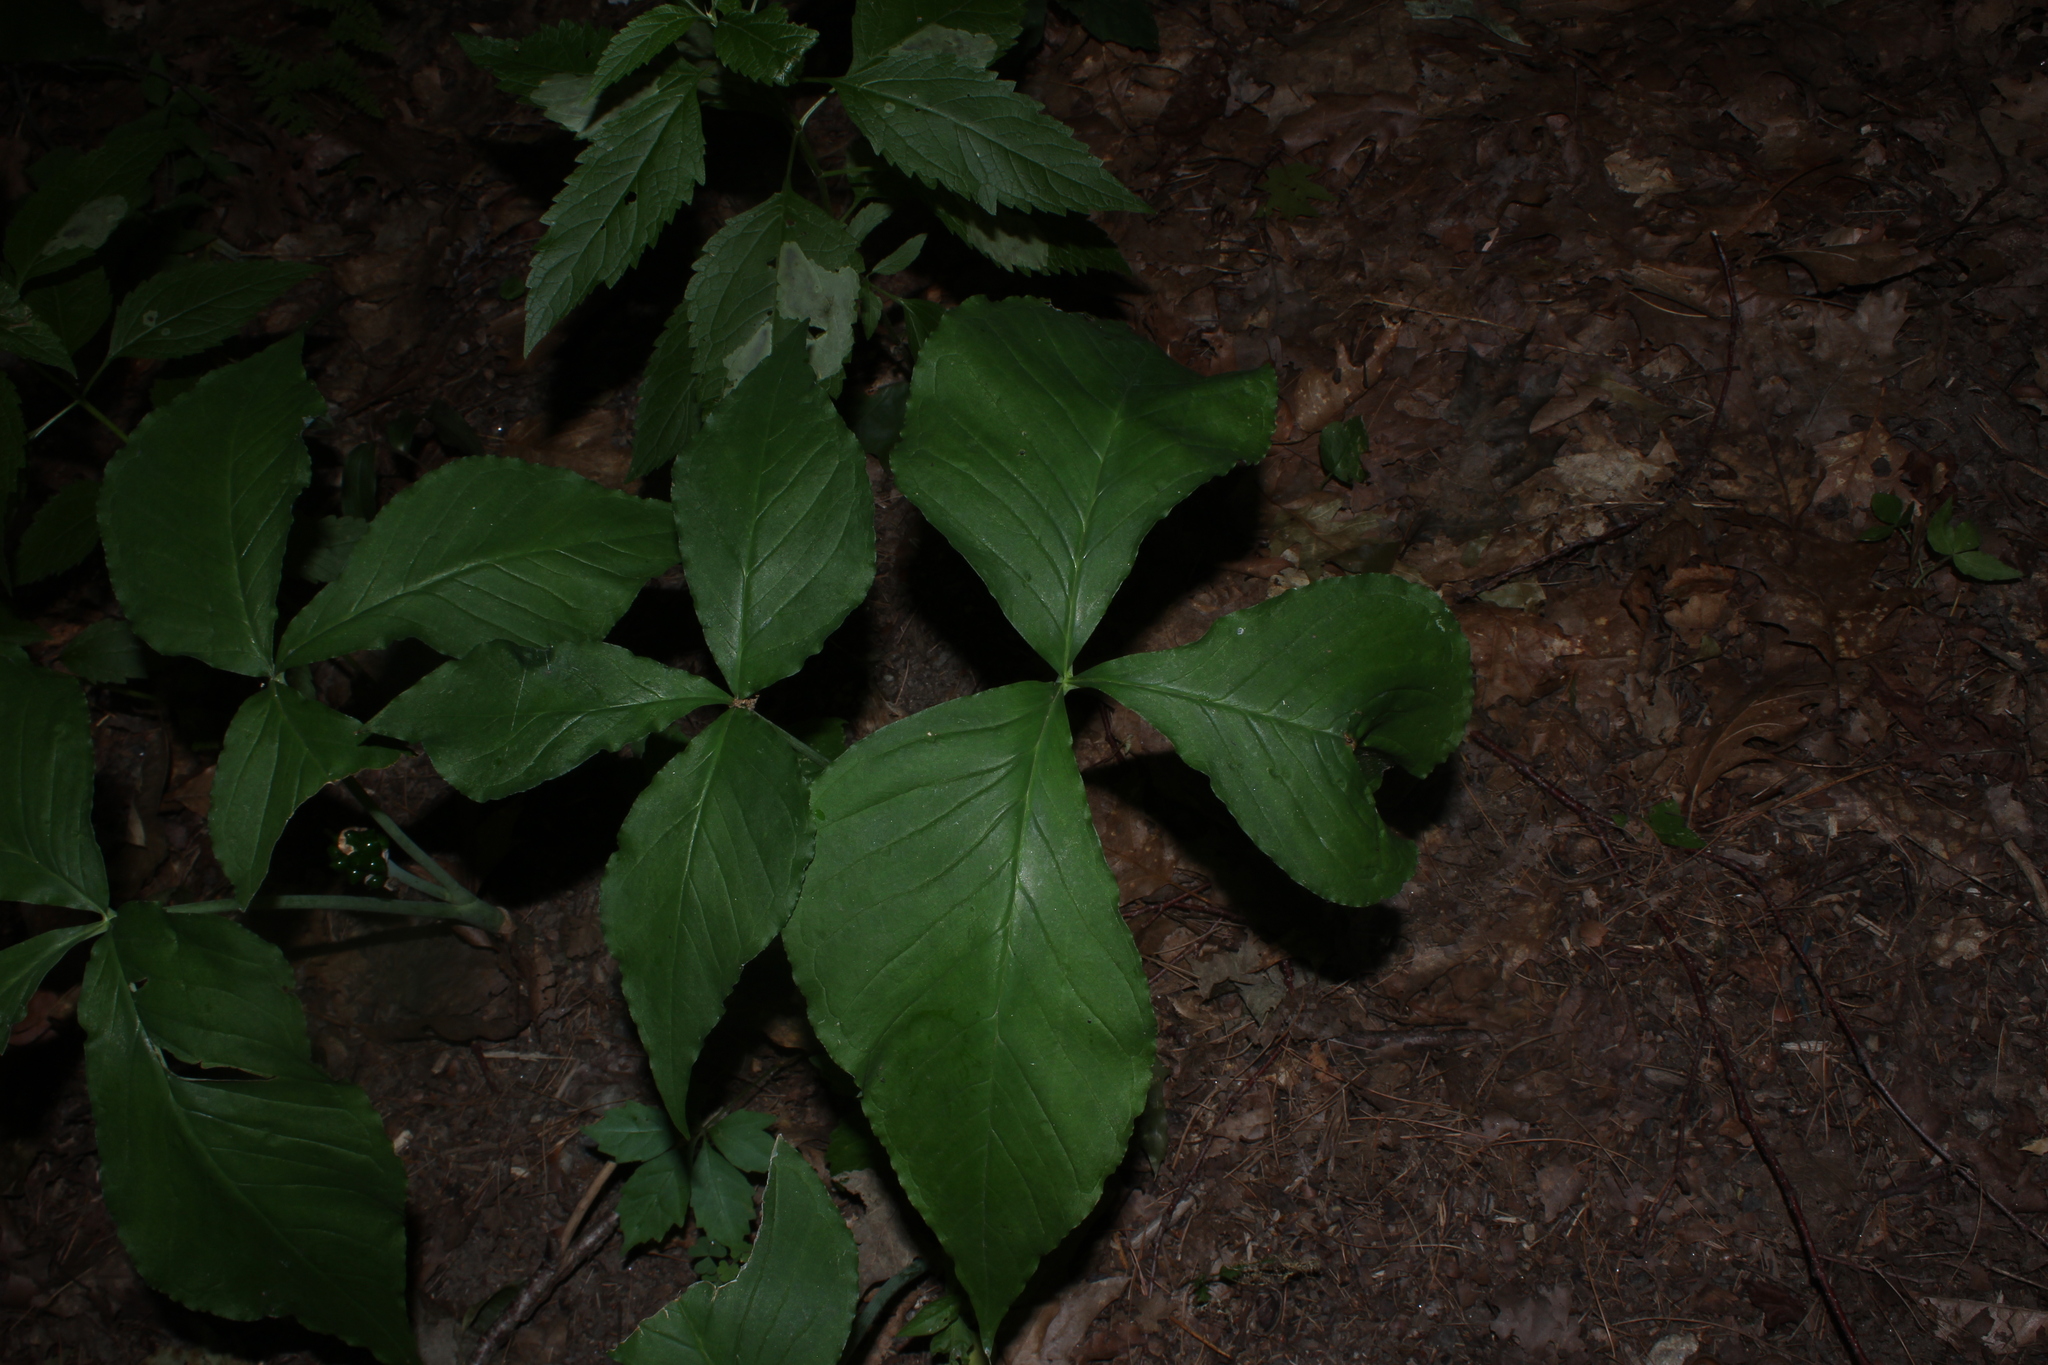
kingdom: Plantae
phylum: Tracheophyta
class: Liliopsida
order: Alismatales
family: Araceae
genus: Arisaema
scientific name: Arisaema triphyllum
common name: Jack-in-the-pulpit
